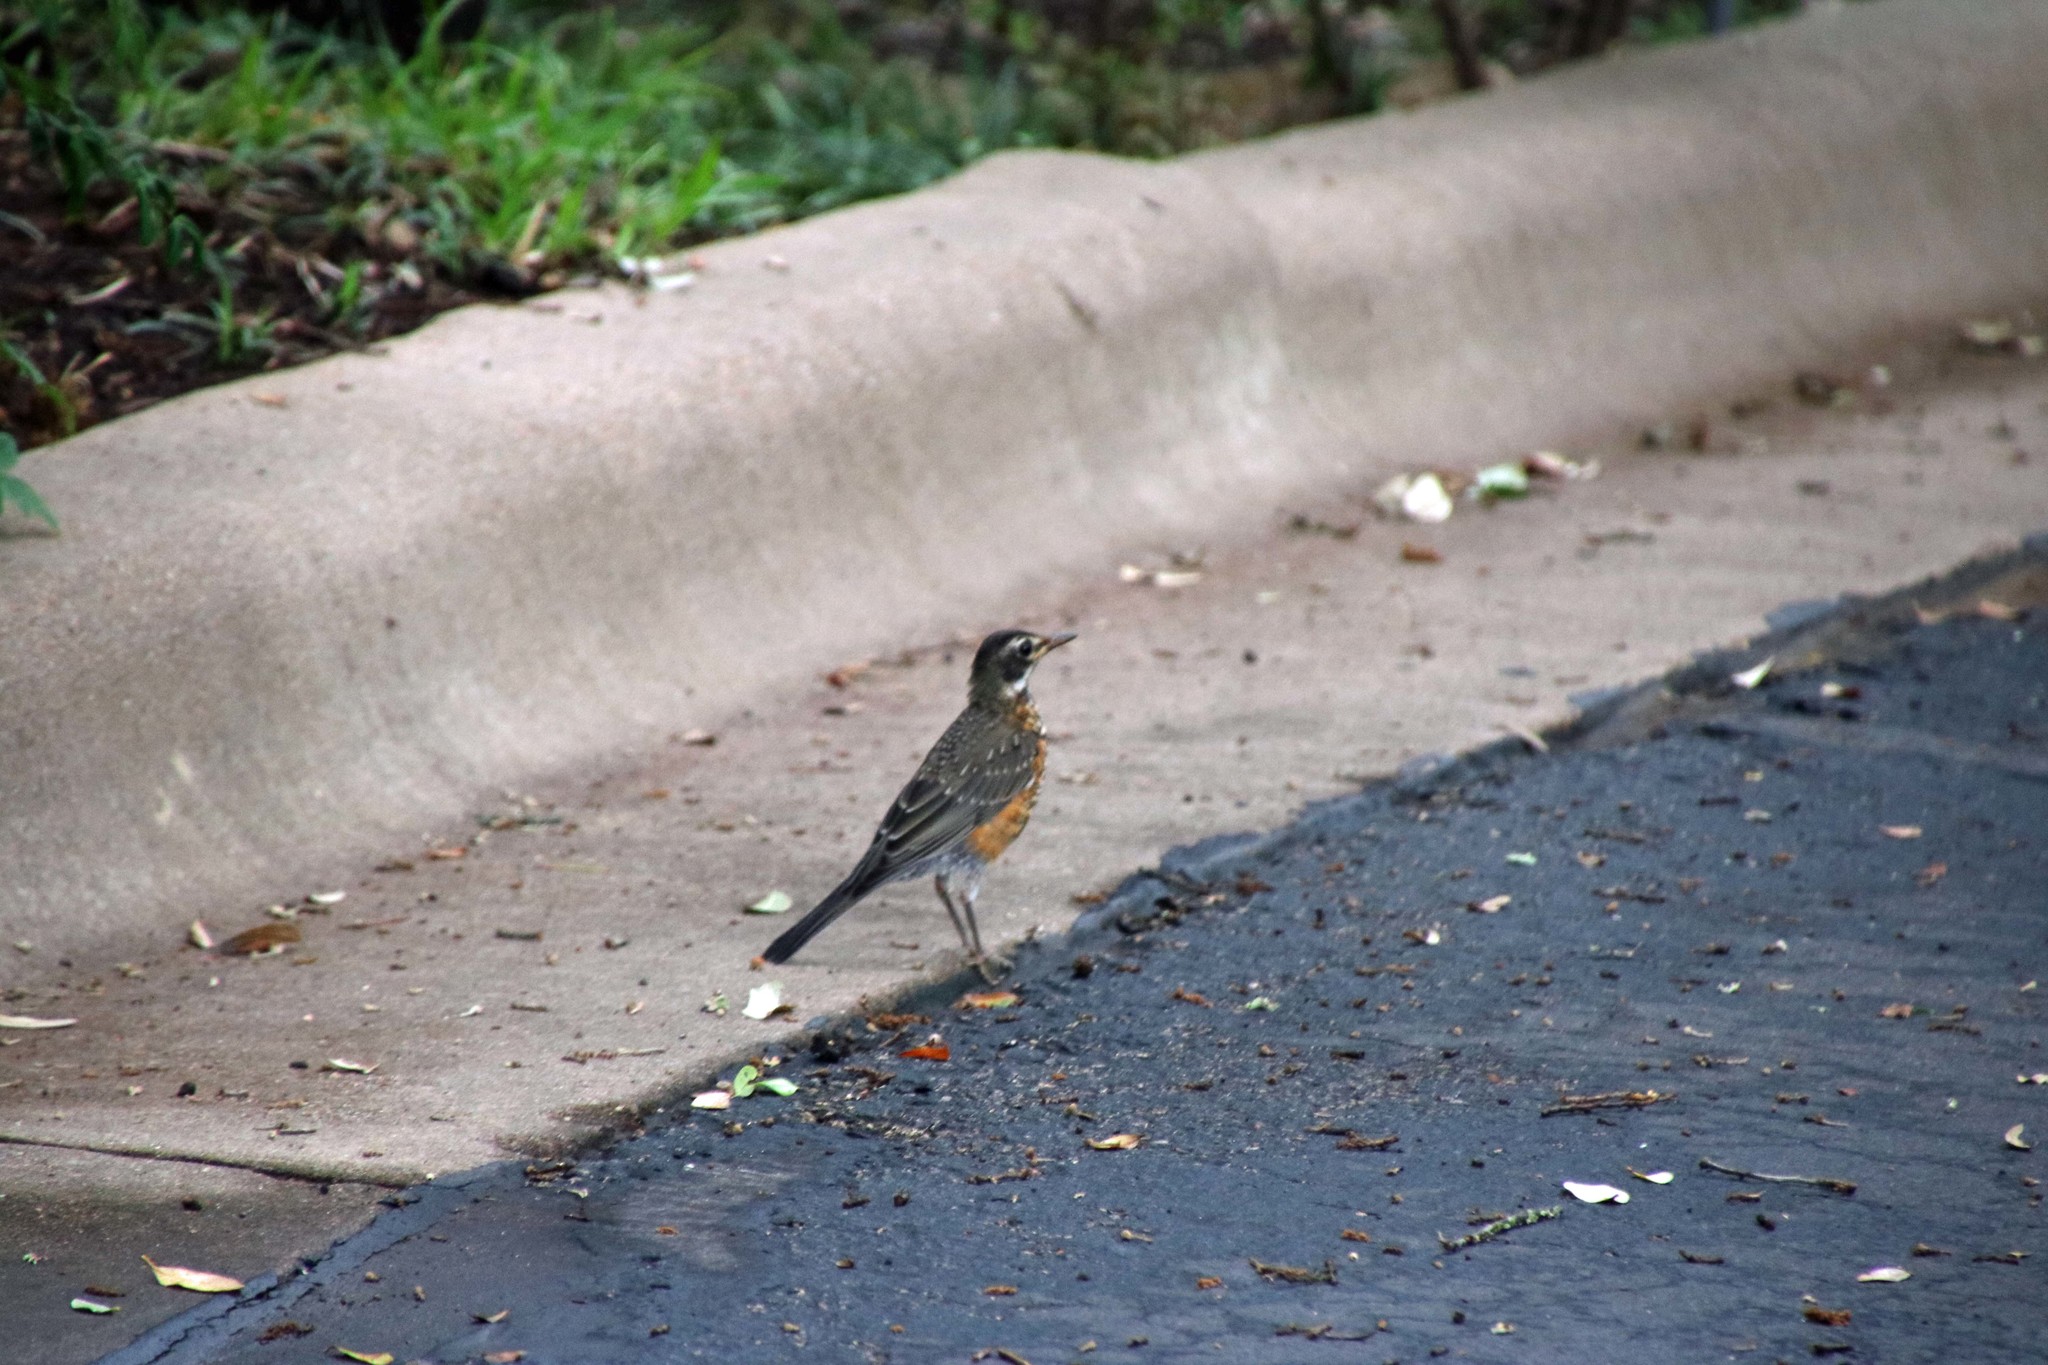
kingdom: Animalia
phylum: Chordata
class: Aves
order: Passeriformes
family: Turdidae
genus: Turdus
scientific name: Turdus migratorius
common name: American robin
